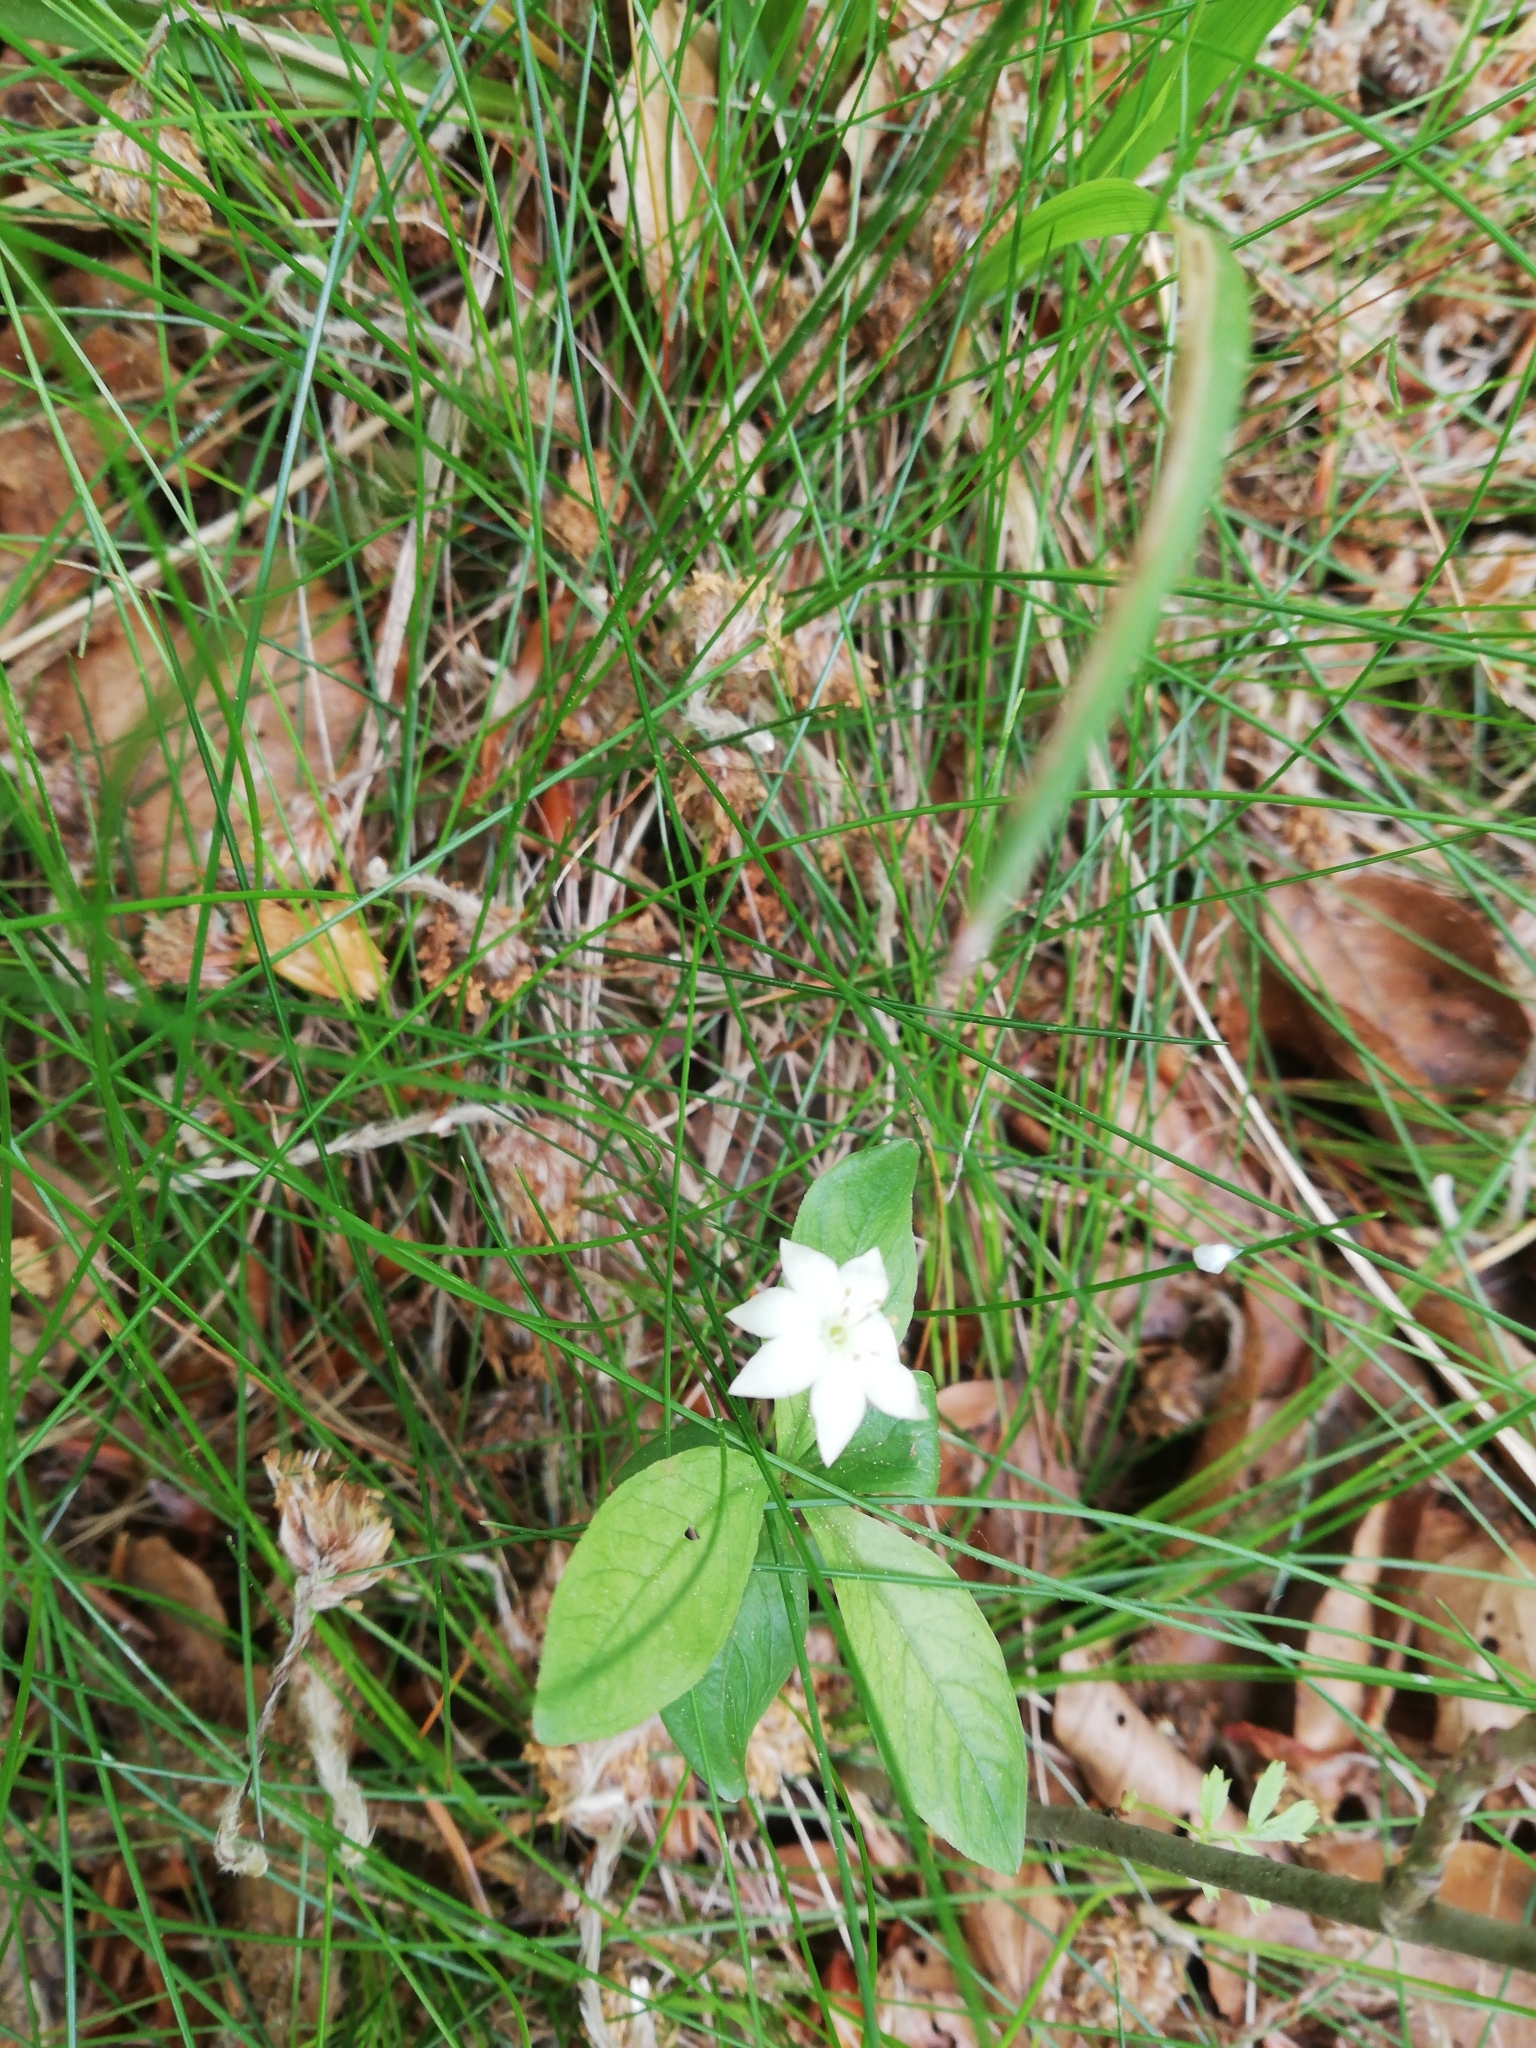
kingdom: Plantae
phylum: Tracheophyta
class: Magnoliopsida
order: Ericales
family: Primulaceae
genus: Lysimachia
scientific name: Lysimachia europaea
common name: Arctic starflower
